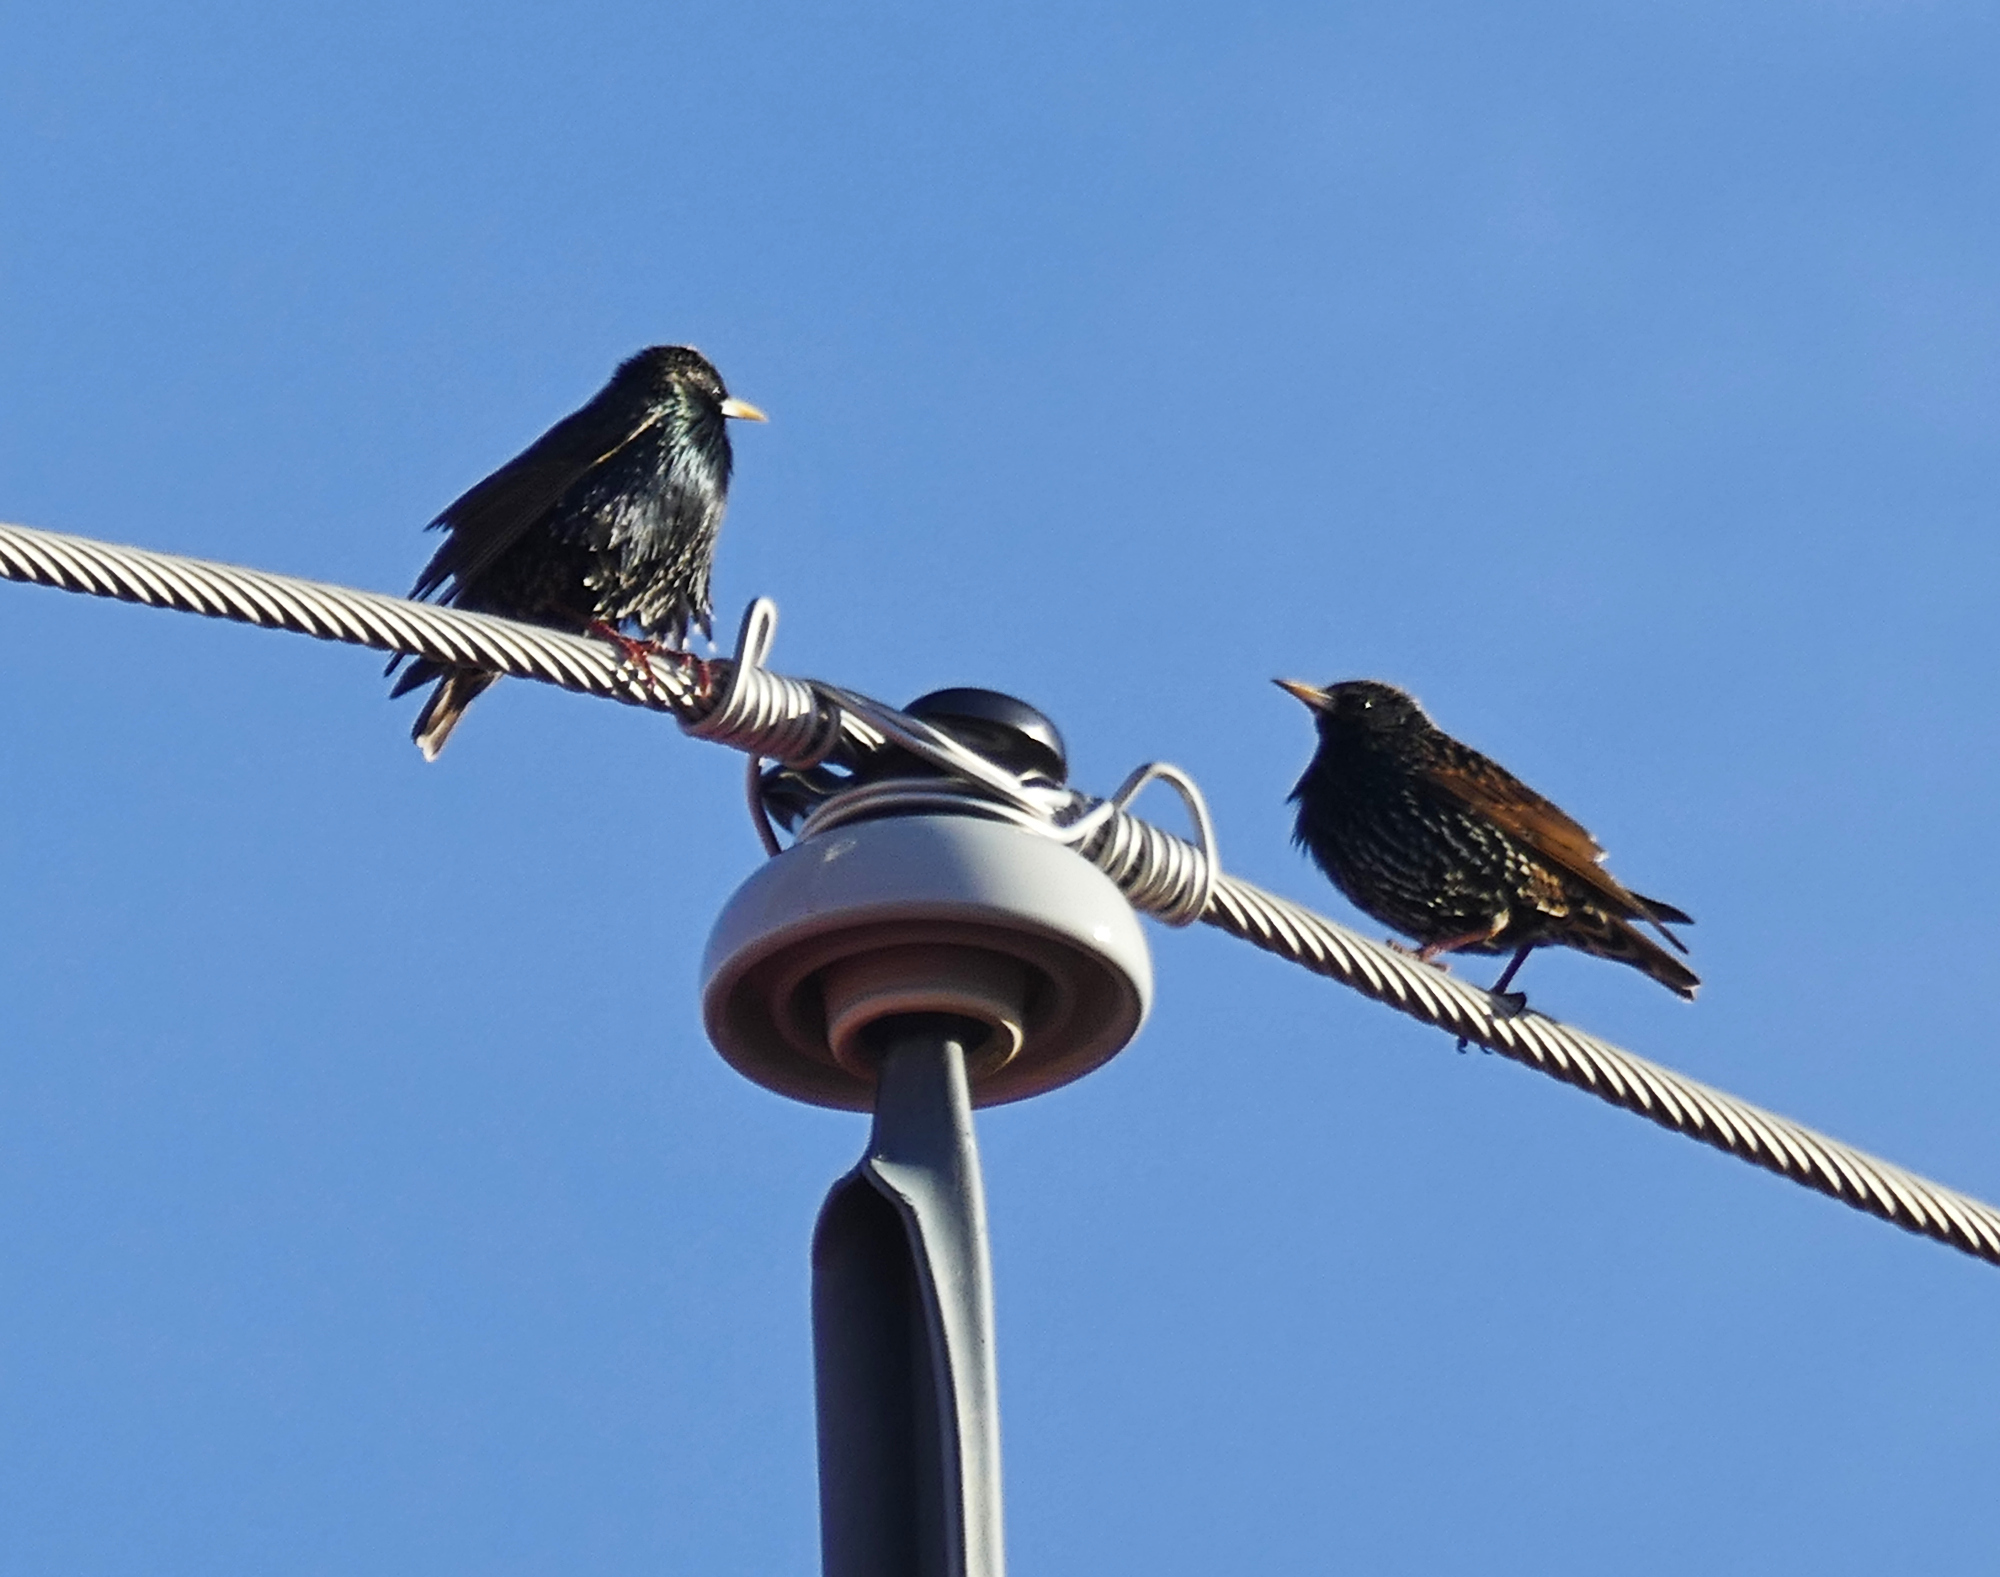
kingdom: Animalia
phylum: Chordata
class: Aves
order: Passeriformes
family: Sturnidae
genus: Sturnus
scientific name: Sturnus vulgaris
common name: Common starling
